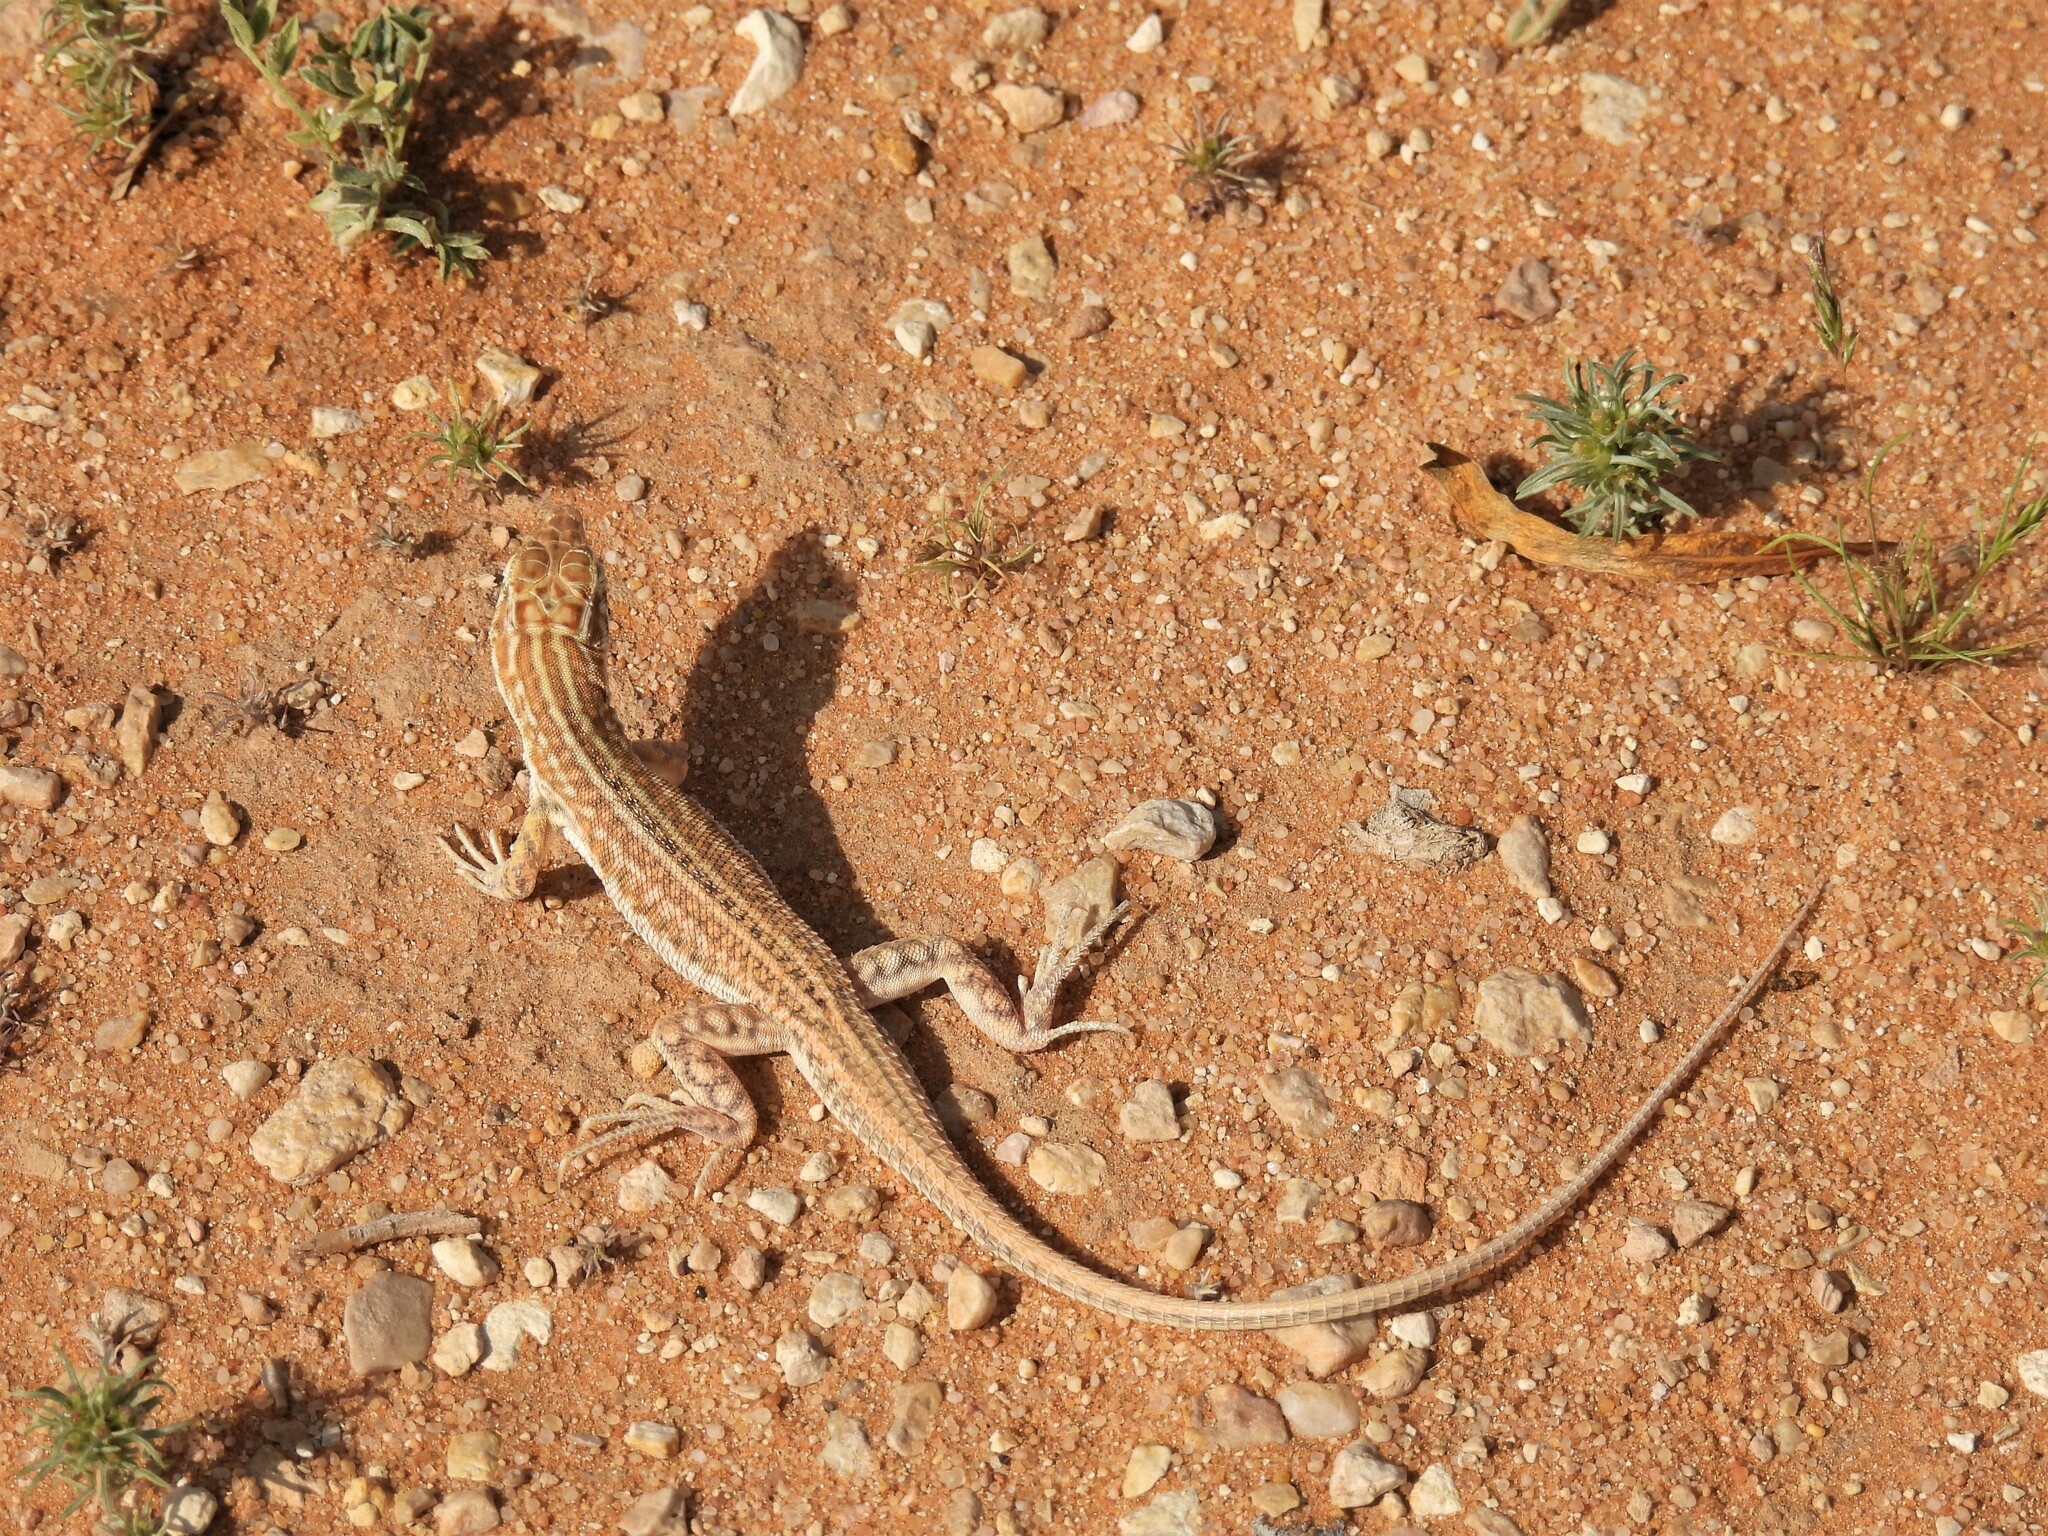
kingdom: Animalia
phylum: Chordata
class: Squamata
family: Lacertidae
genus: Acanthodactylus
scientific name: Acanthodactylus opheodurus
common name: Arnold's fringe-fingered lizard
